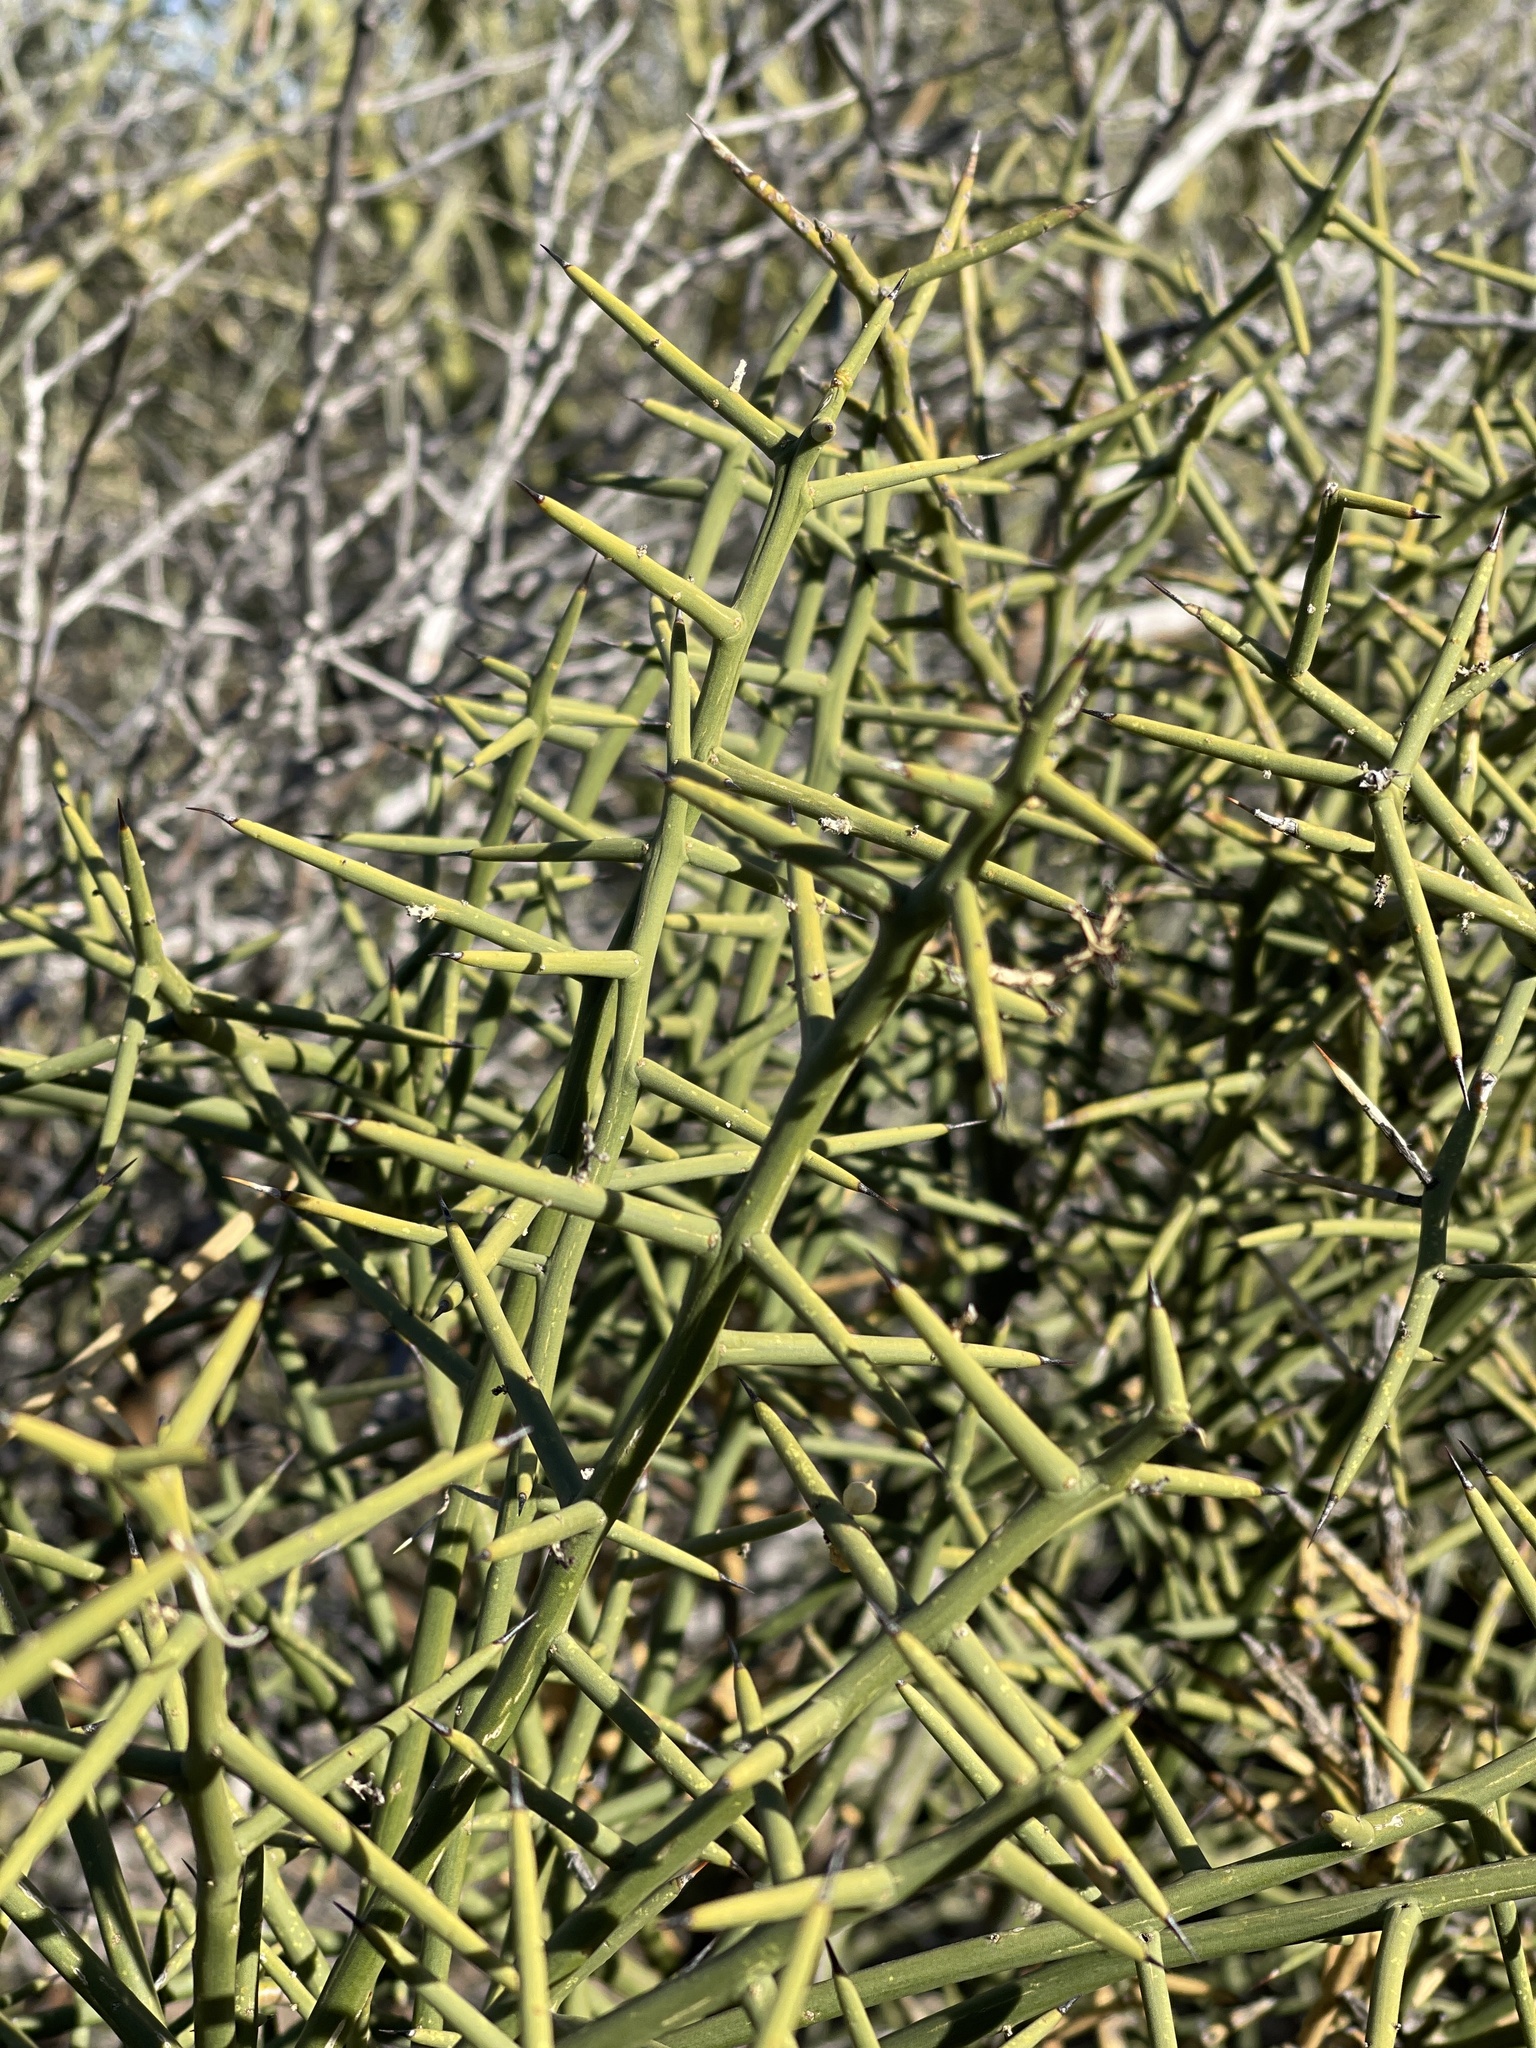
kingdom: Plantae
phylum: Tracheophyta
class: Magnoliopsida
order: Brassicales
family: Koeberliniaceae
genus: Koeberlinia
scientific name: Koeberlinia spinosa
